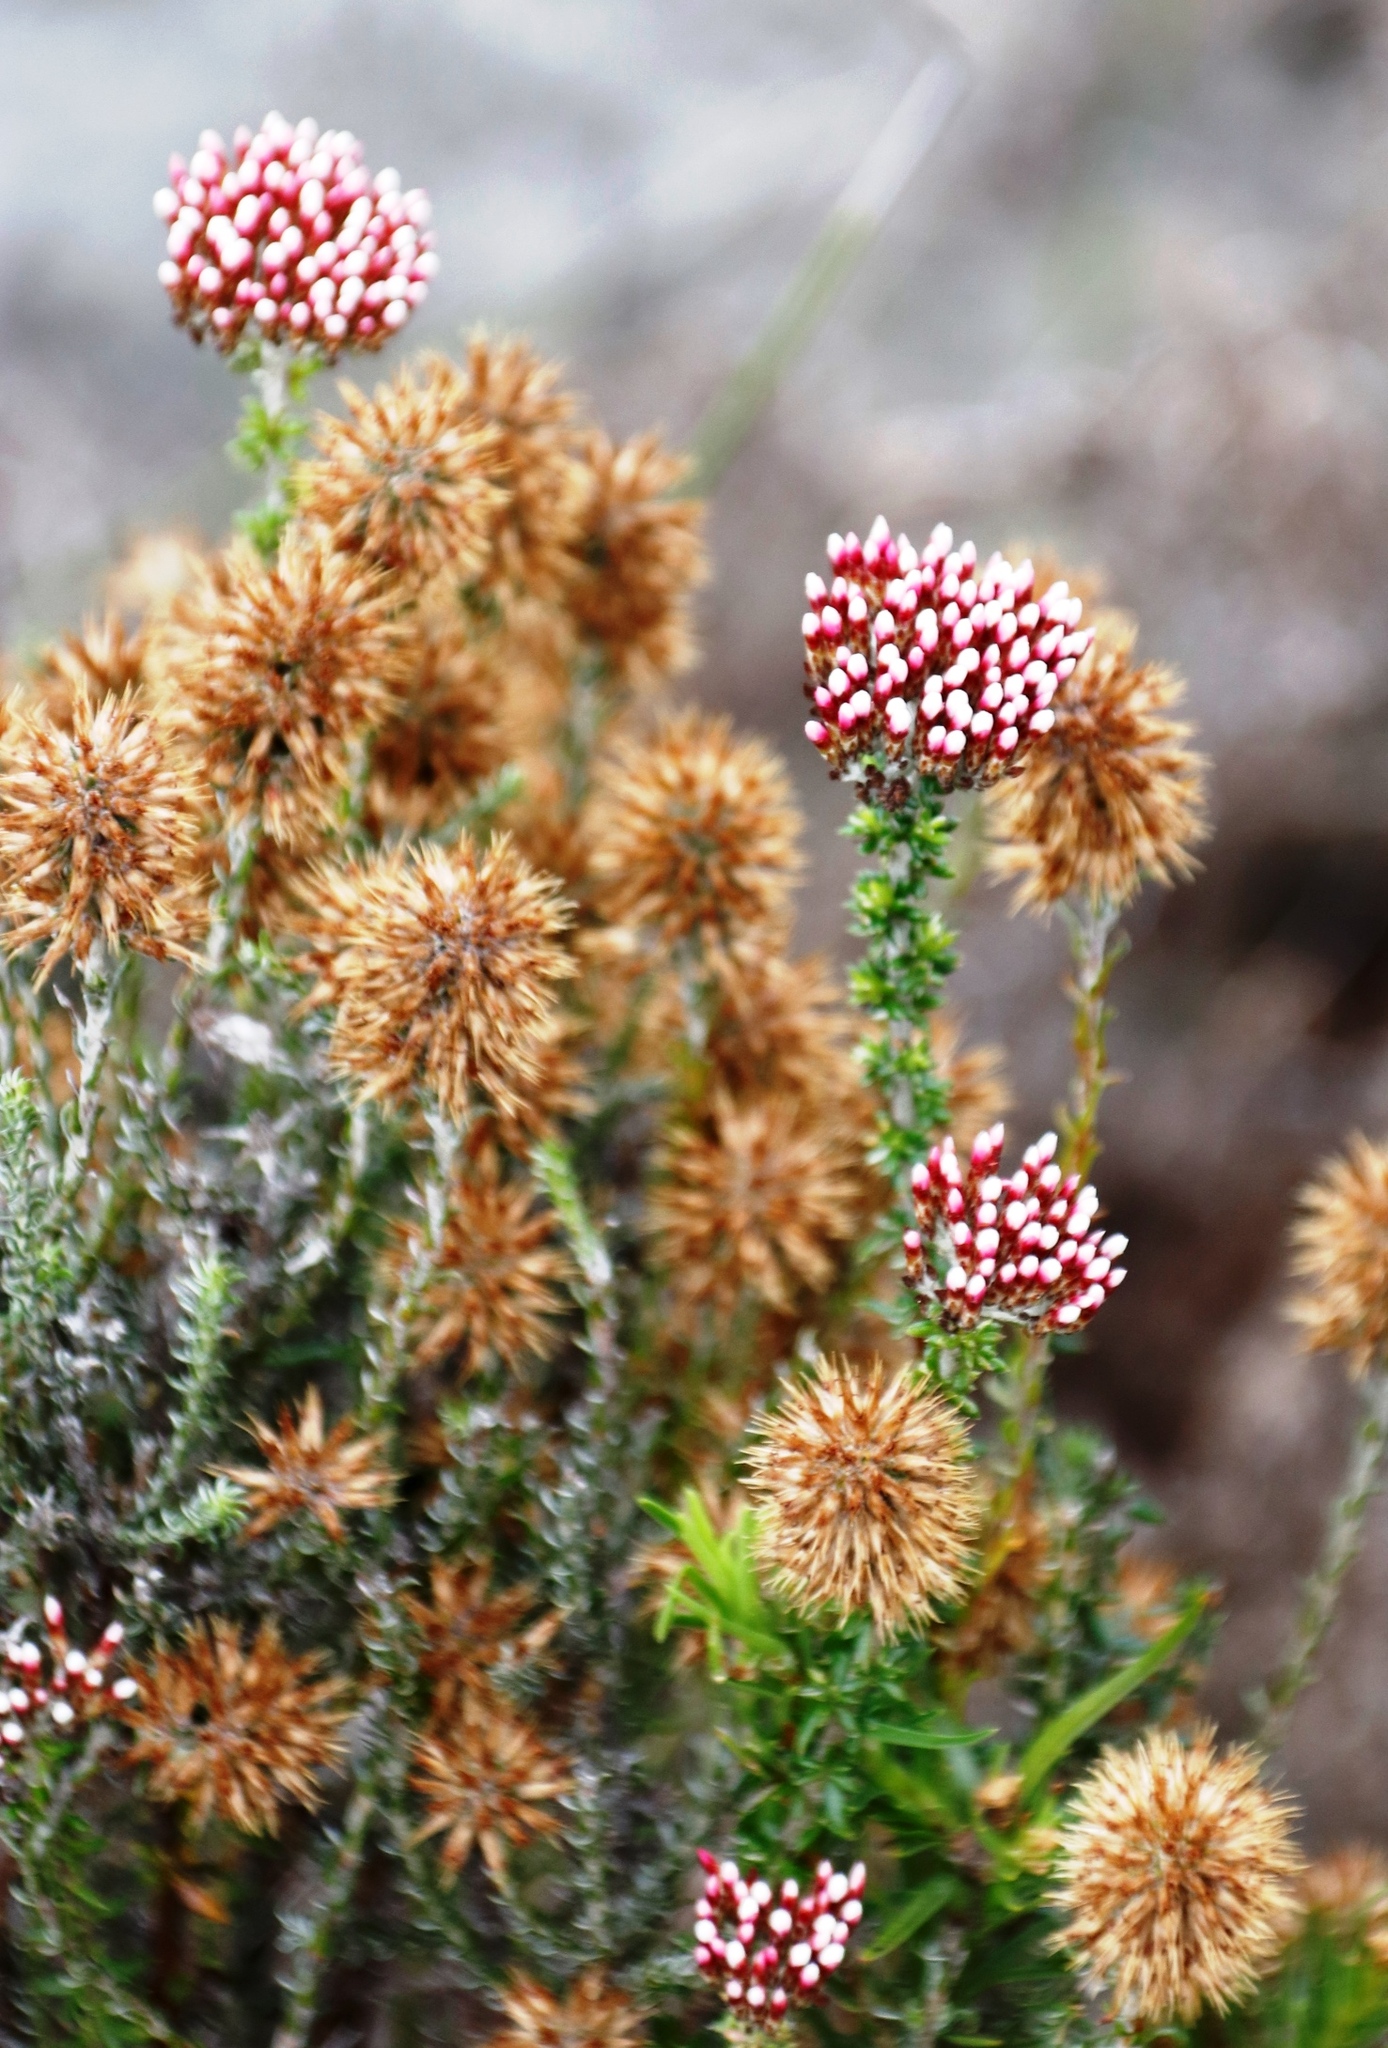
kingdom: Plantae
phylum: Tracheophyta
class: Magnoliopsida
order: Asterales
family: Asteraceae
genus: Seriphium
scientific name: Seriphium spirale
